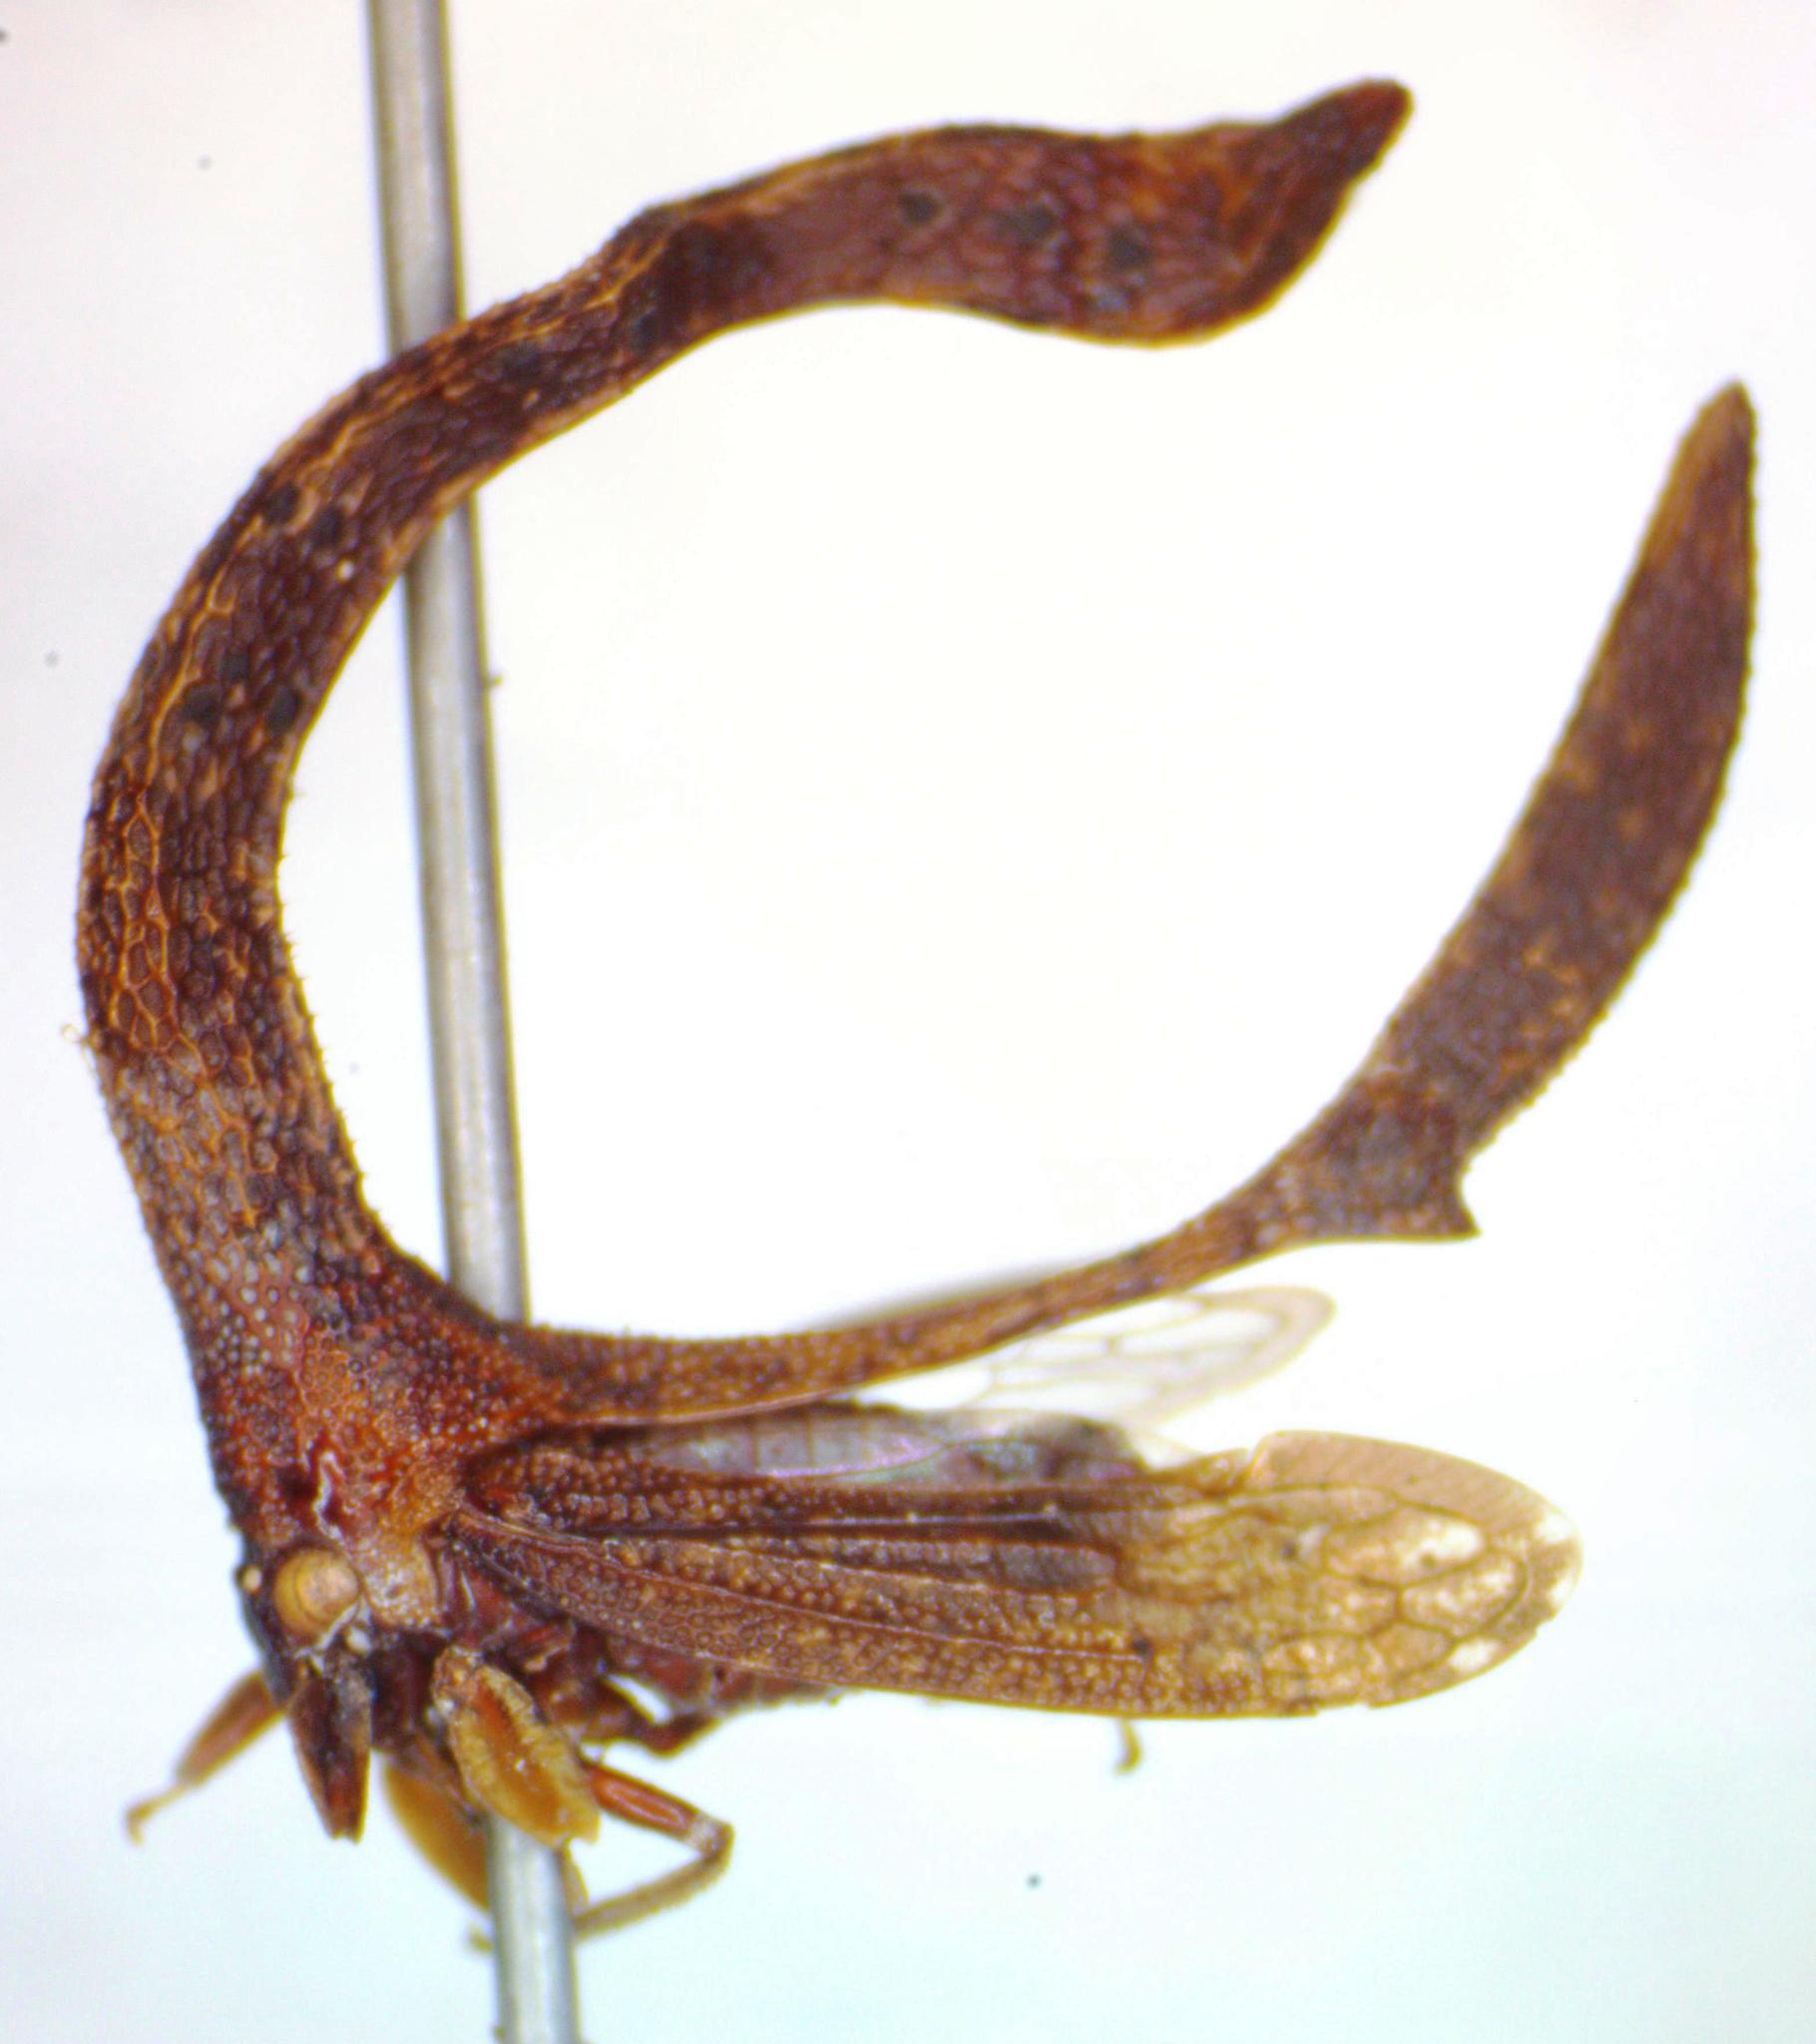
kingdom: Animalia
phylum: Arthropoda
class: Insecta
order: Hemiptera
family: Membracidae
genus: Cladonota
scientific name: Cladonota apicalis
